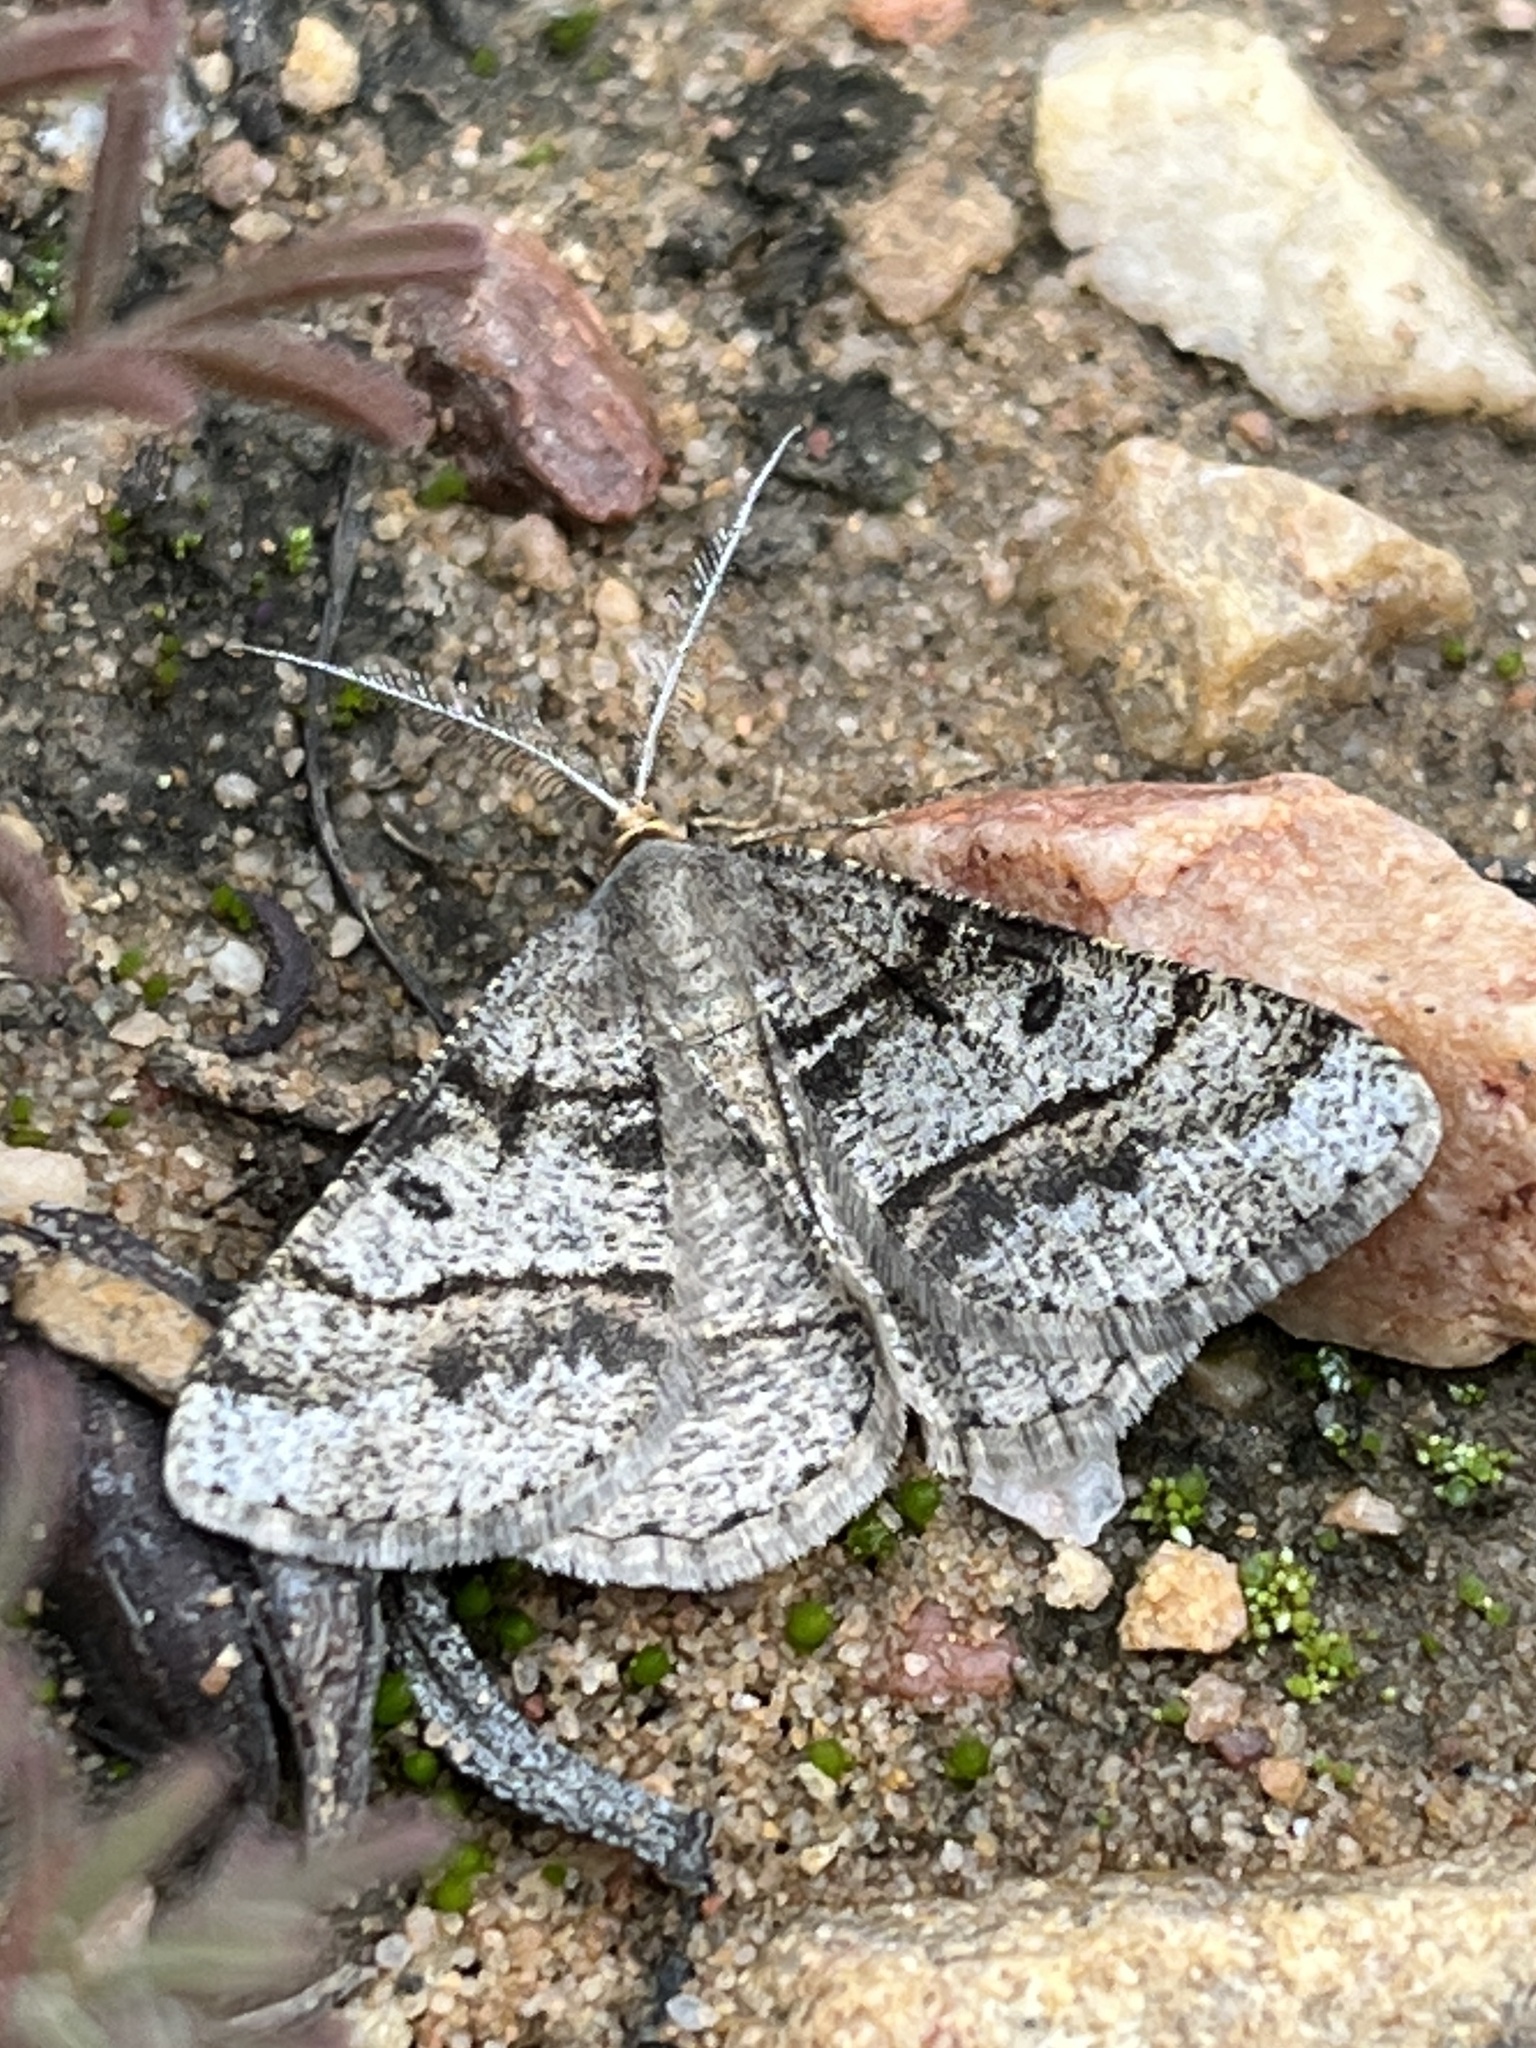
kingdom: Animalia
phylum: Arthropoda
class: Insecta
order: Lepidoptera
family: Geometridae
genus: Isturgia
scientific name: Isturgia exerraria
